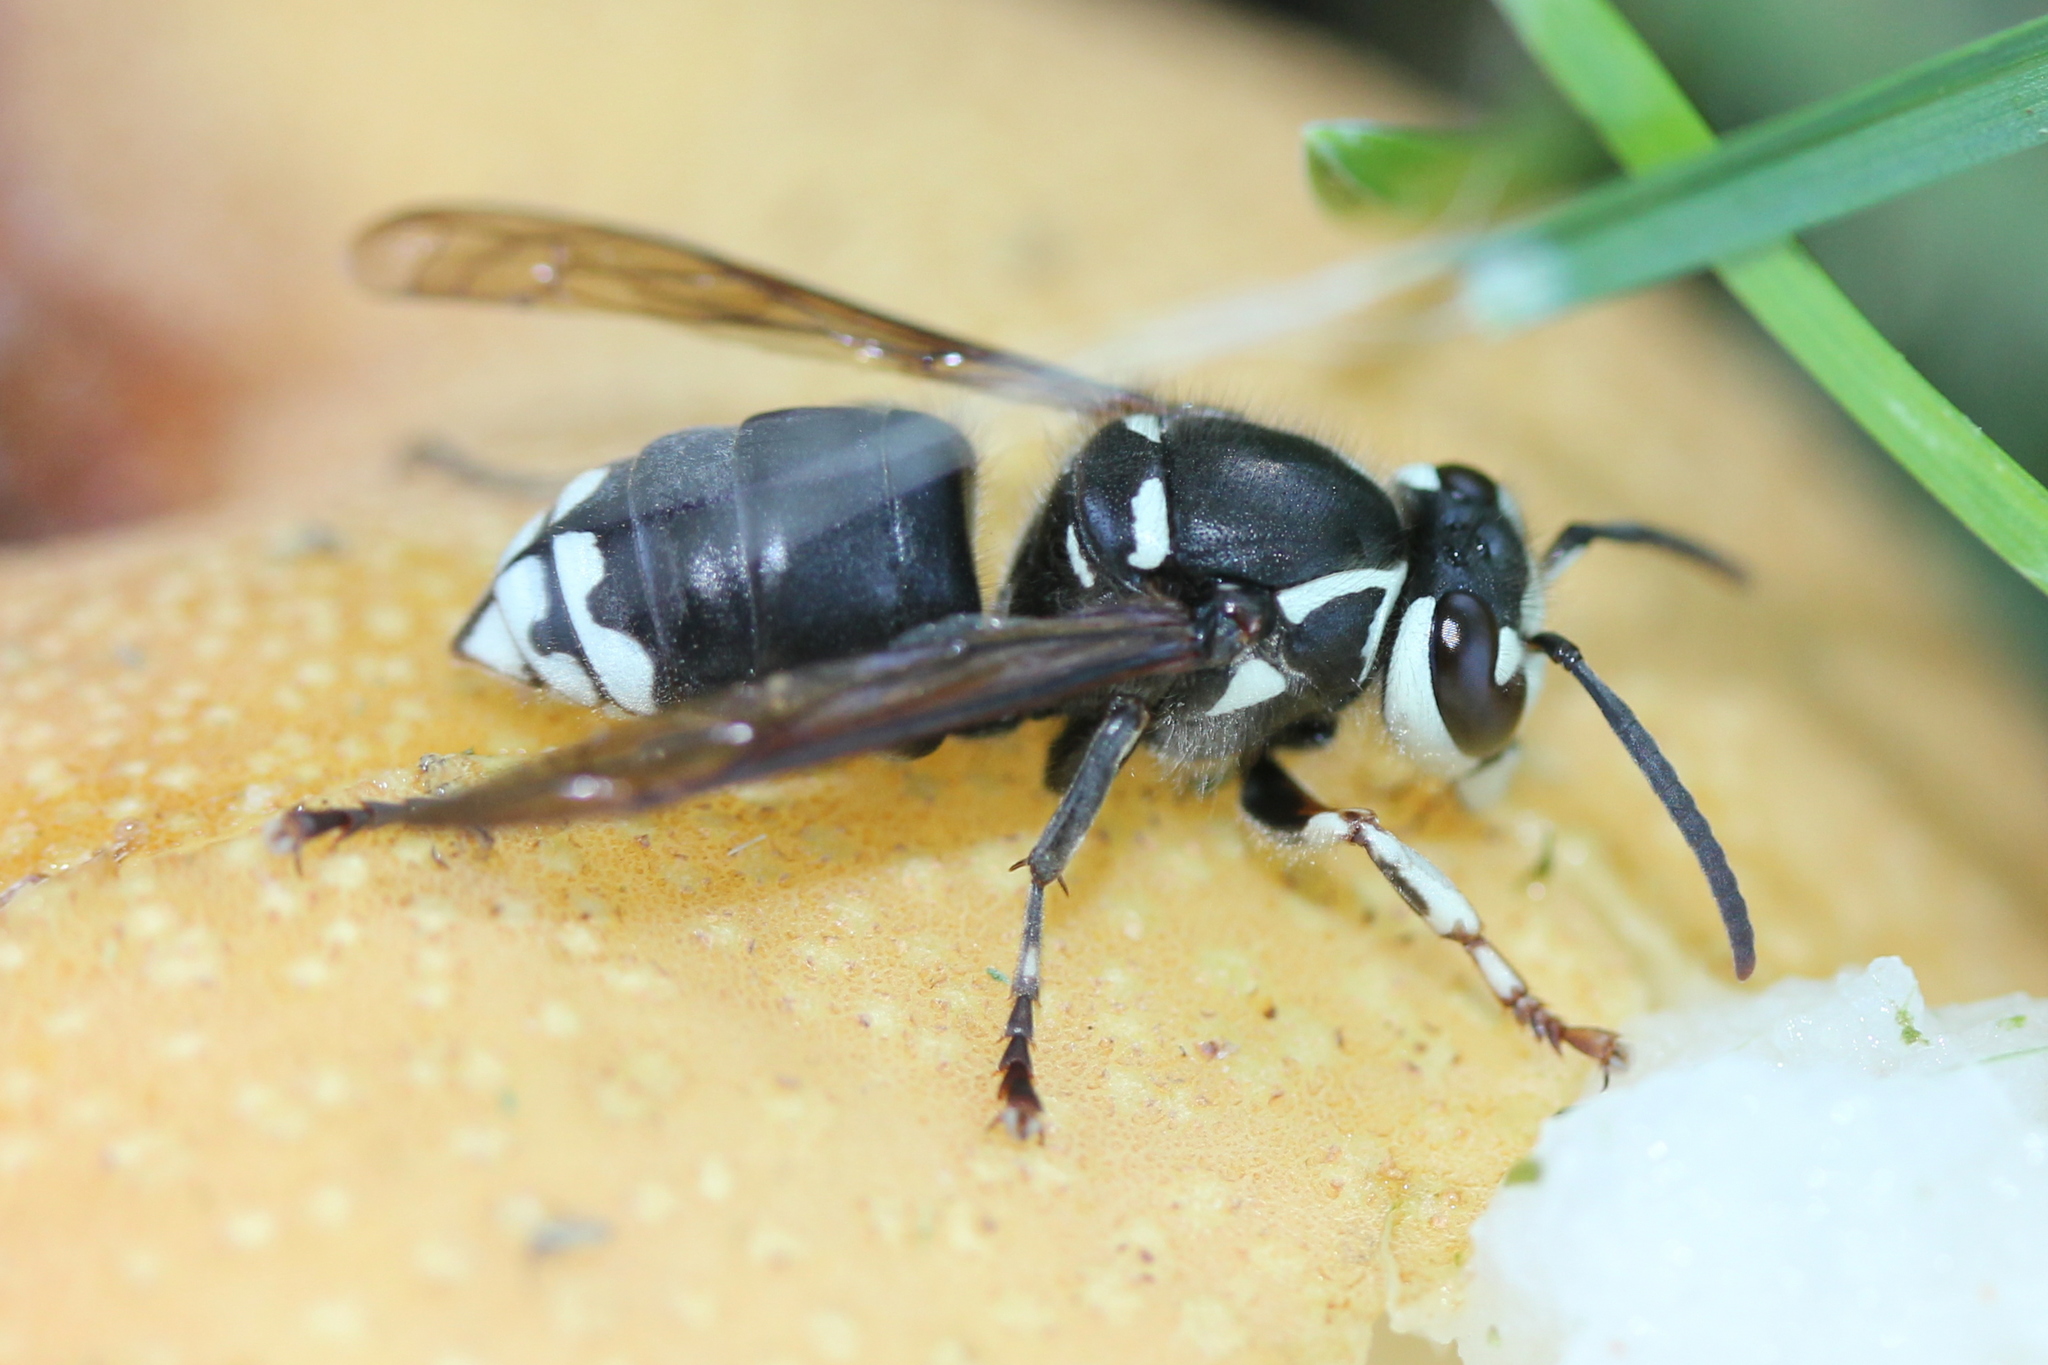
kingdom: Animalia
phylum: Arthropoda
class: Insecta
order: Hymenoptera
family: Vespidae
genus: Dolichovespula
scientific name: Dolichovespula maculata
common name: Bald-faced hornet
